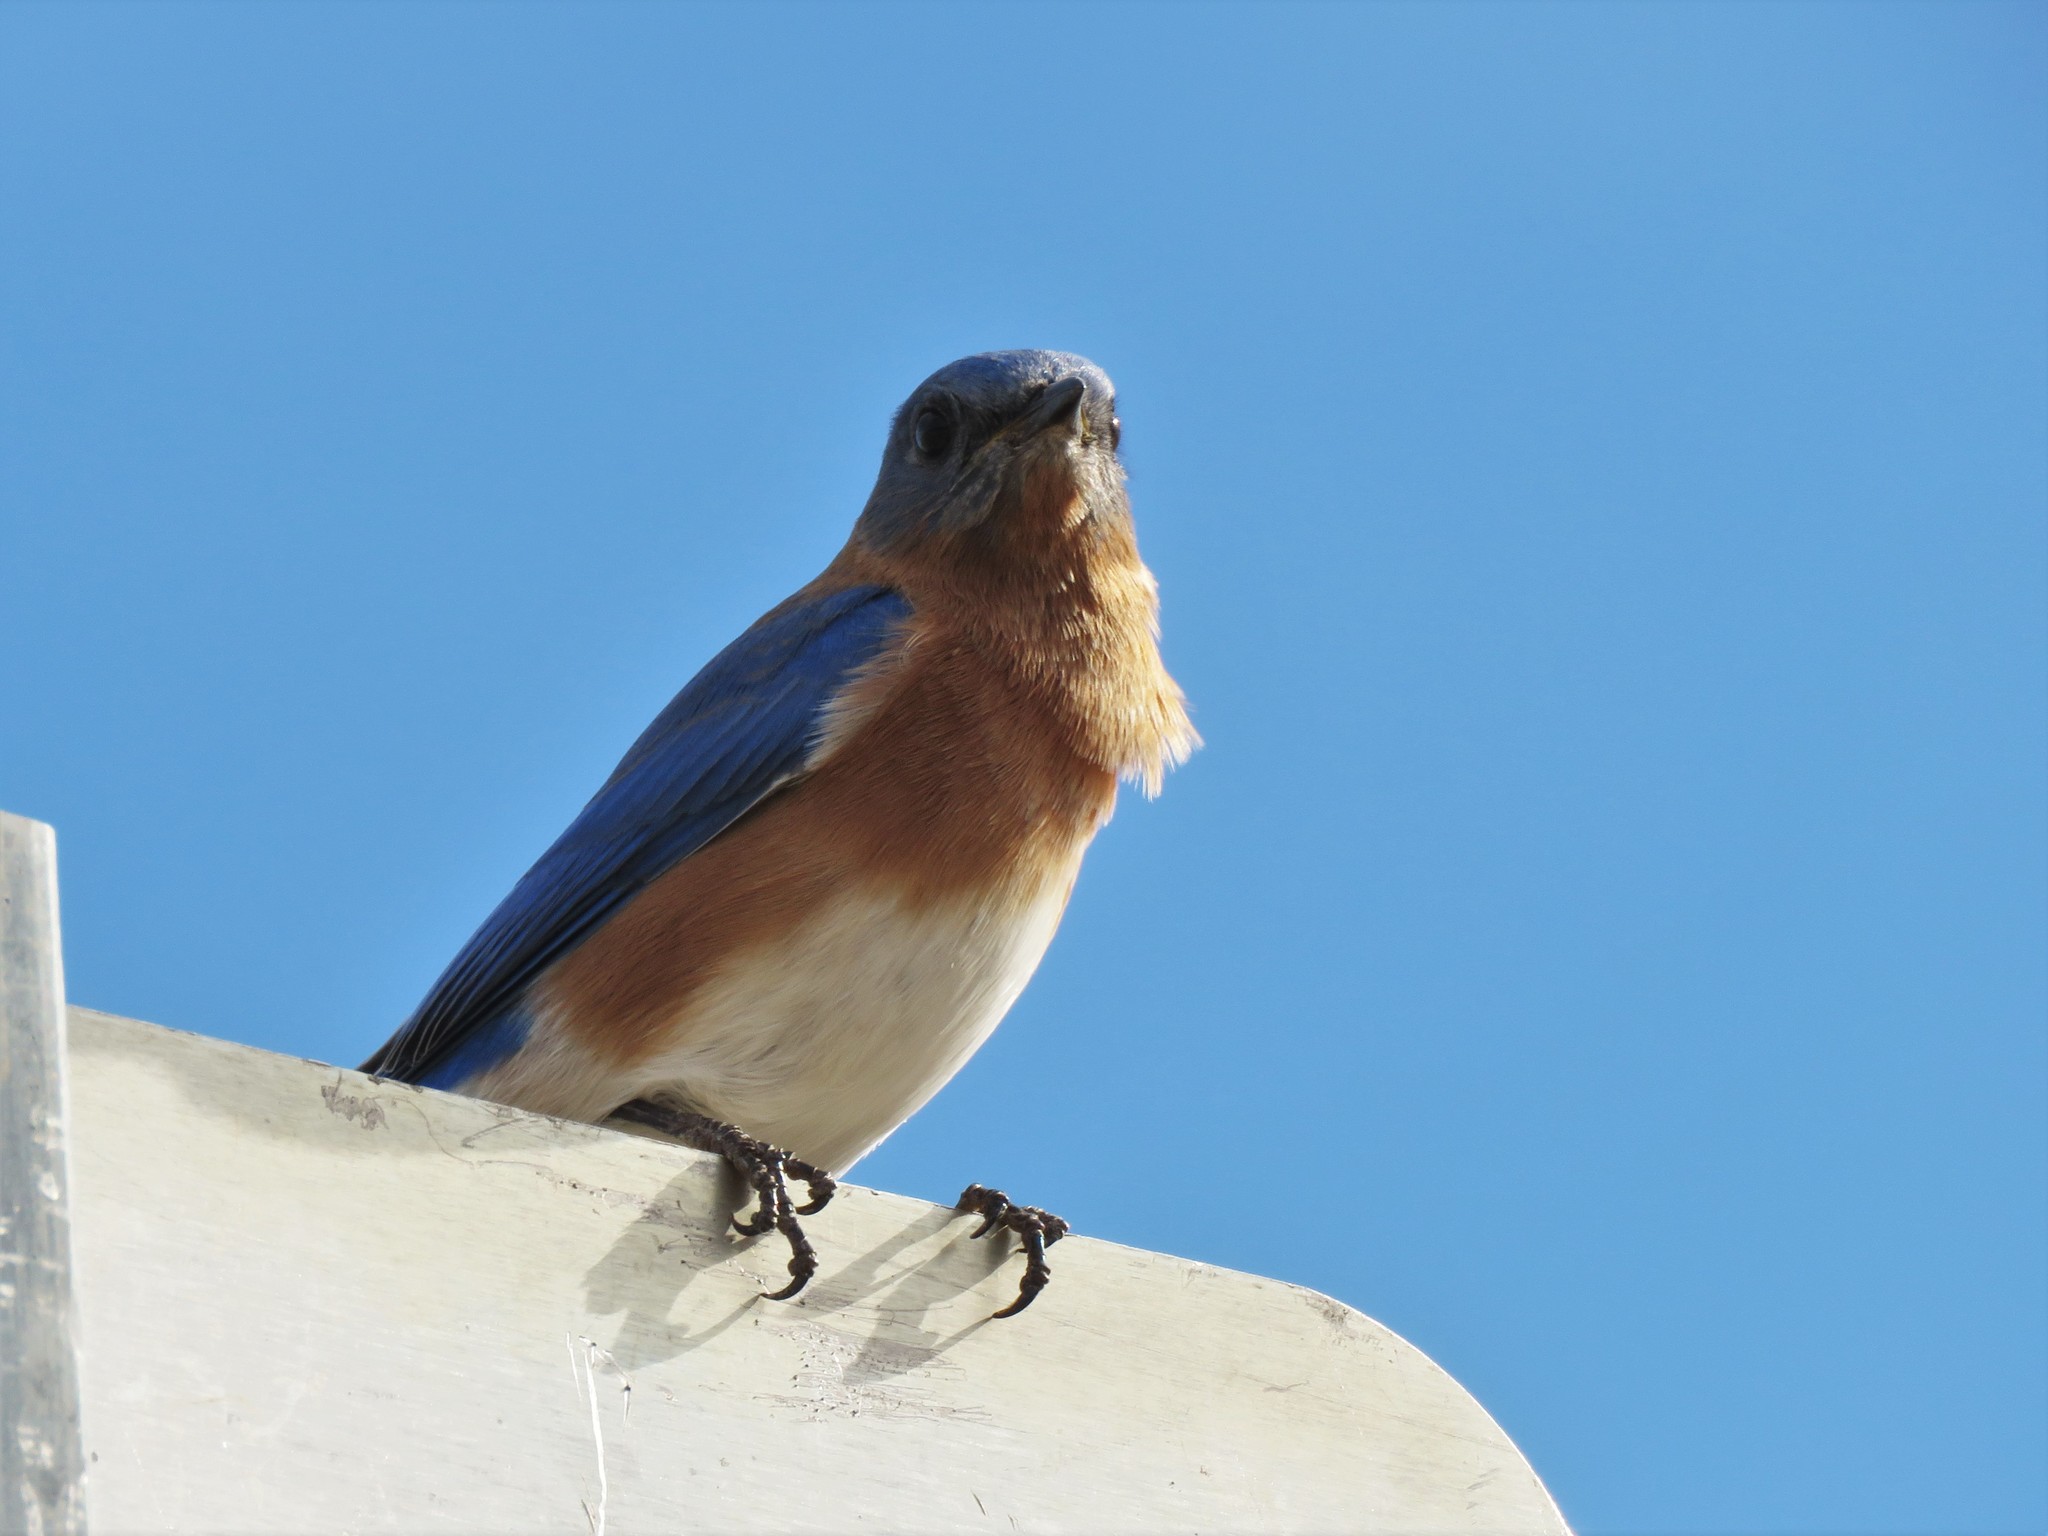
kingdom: Animalia
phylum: Chordata
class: Aves
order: Passeriformes
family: Turdidae
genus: Sialia
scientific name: Sialia sialis
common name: Eastern bluebird
